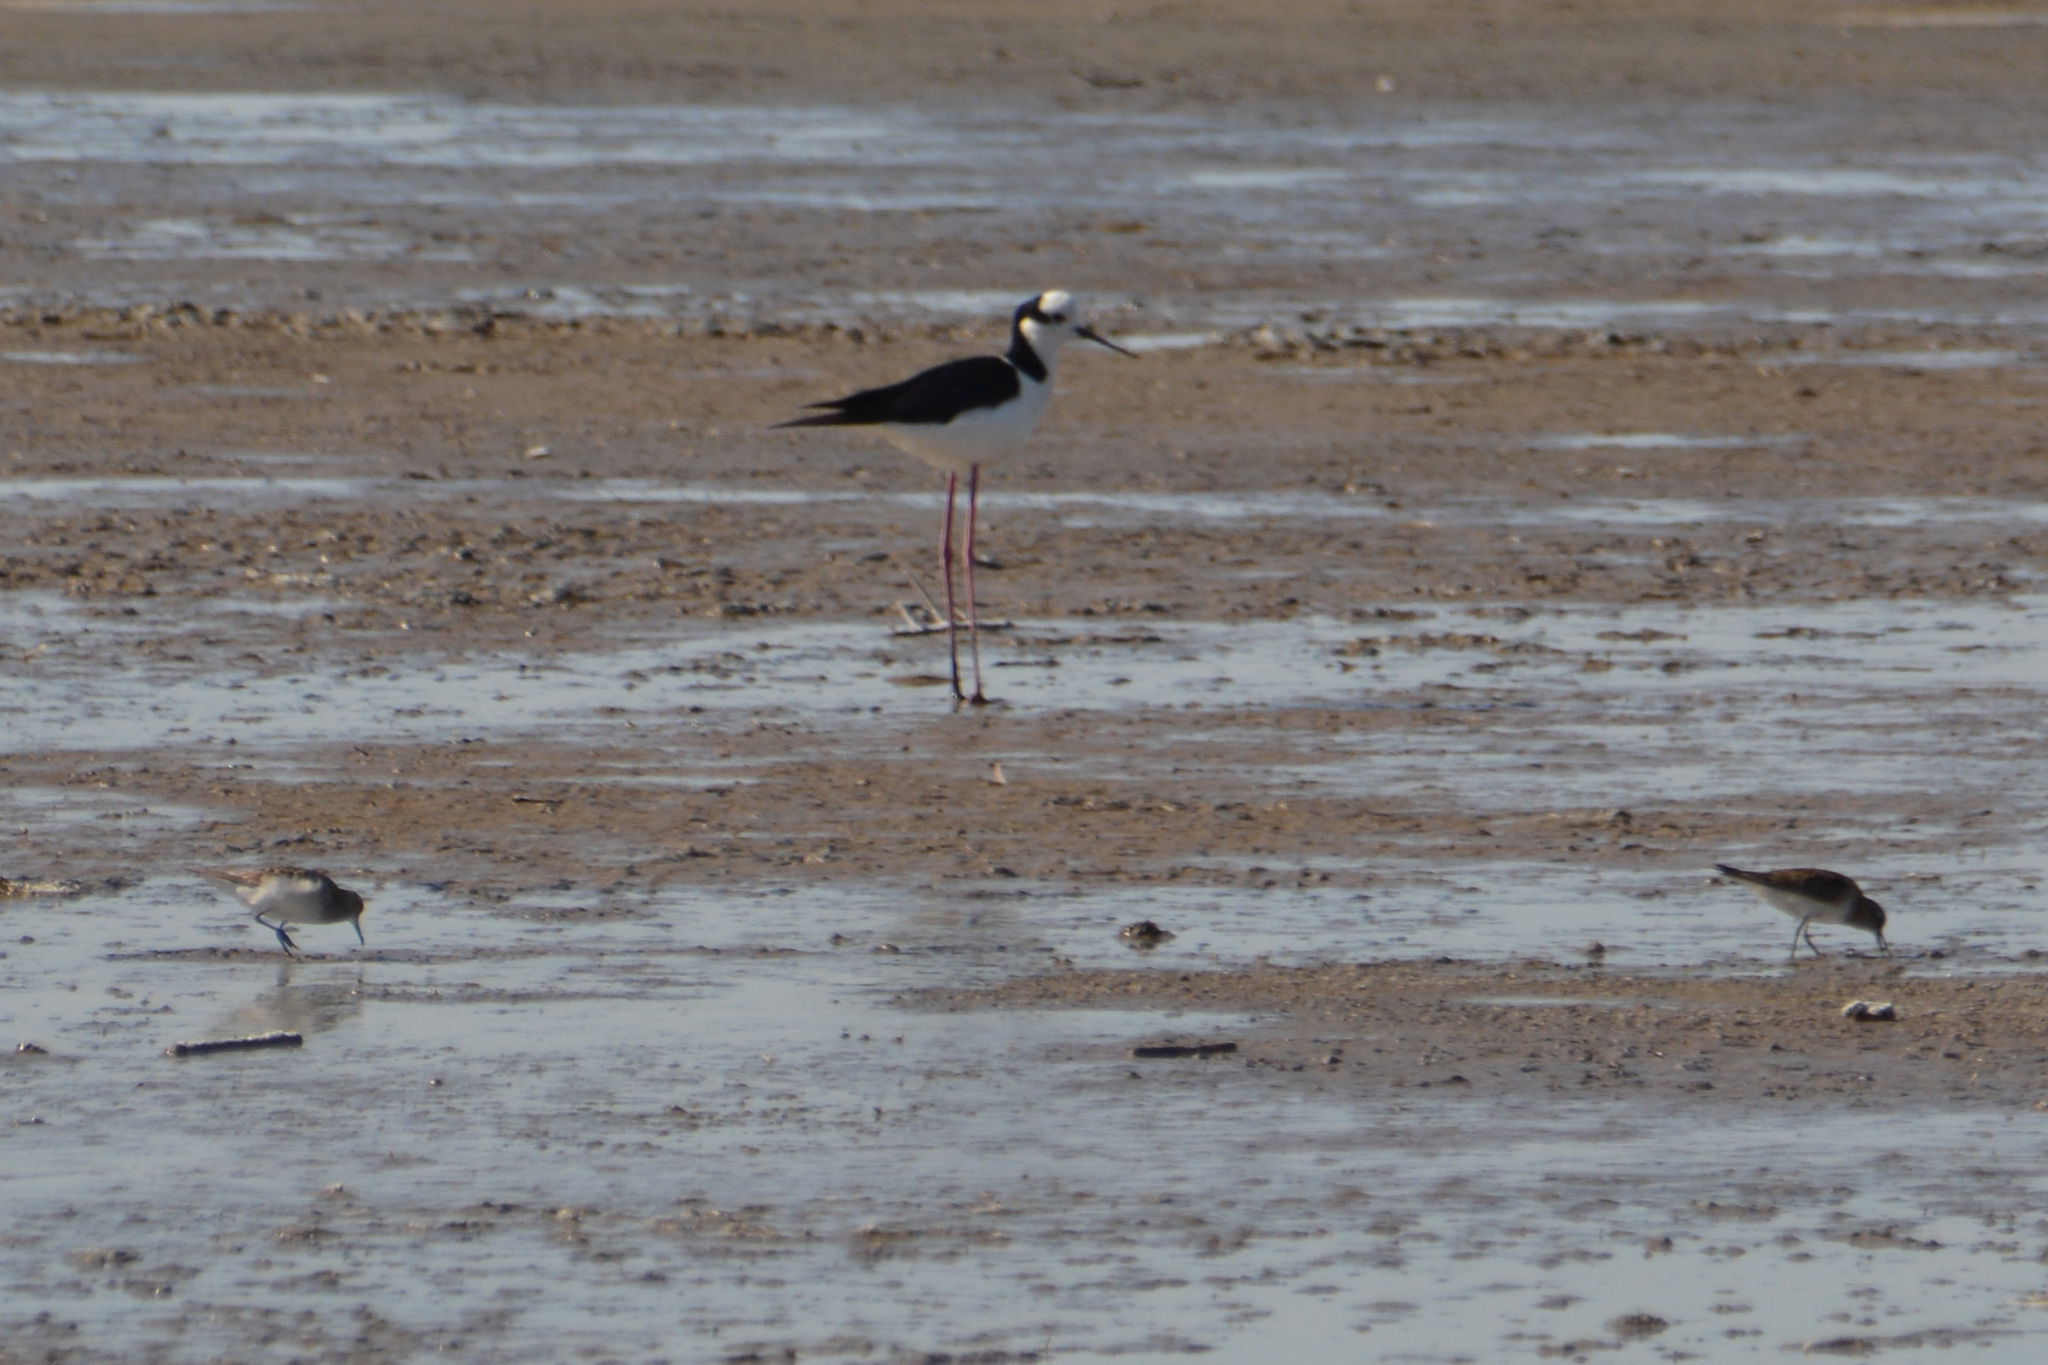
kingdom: Animalia
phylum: Chordata
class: Aves
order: Charadriiformes
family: Recurvirostridae
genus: Himantopus
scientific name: Himantopus mexicanus
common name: Black-necked stilt
